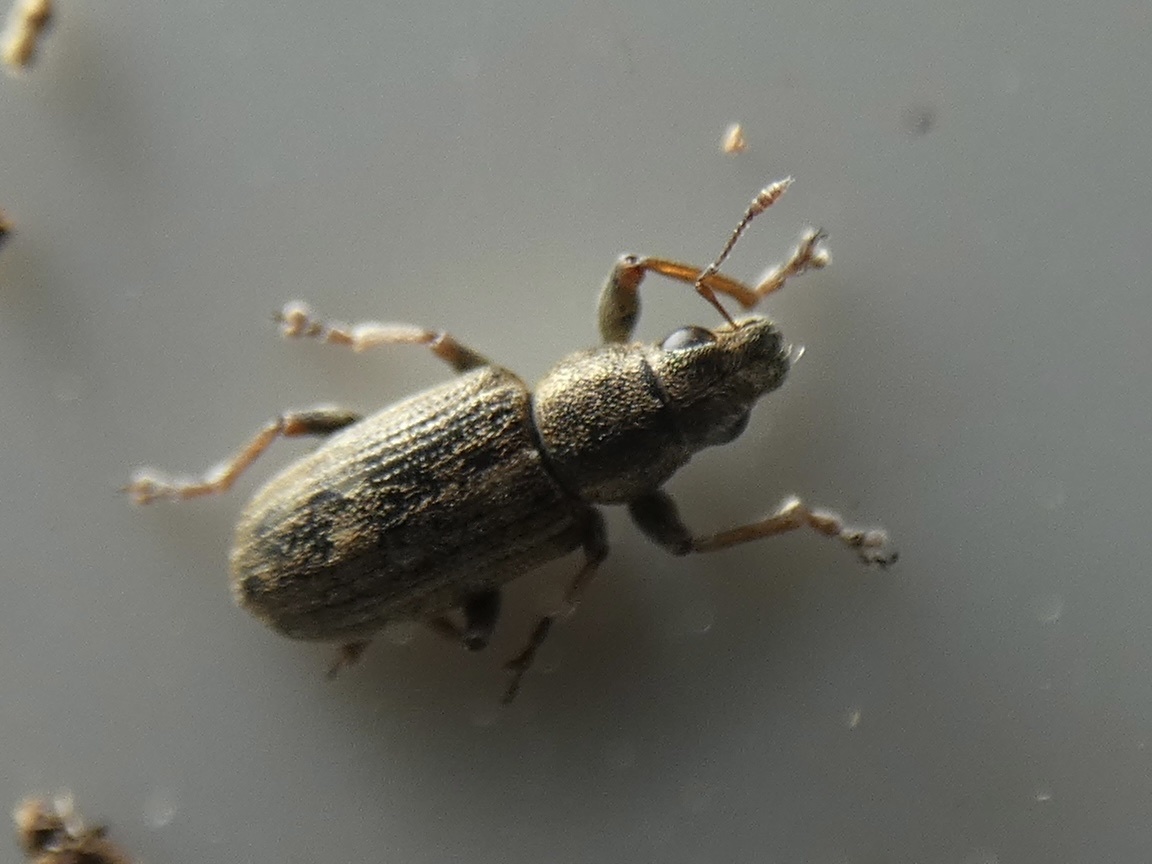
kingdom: Animalia
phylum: Arthropoda
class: Insecta
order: Coleoptera
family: Curculionidae
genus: Sitona
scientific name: Sitona lineatus
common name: Weevil
